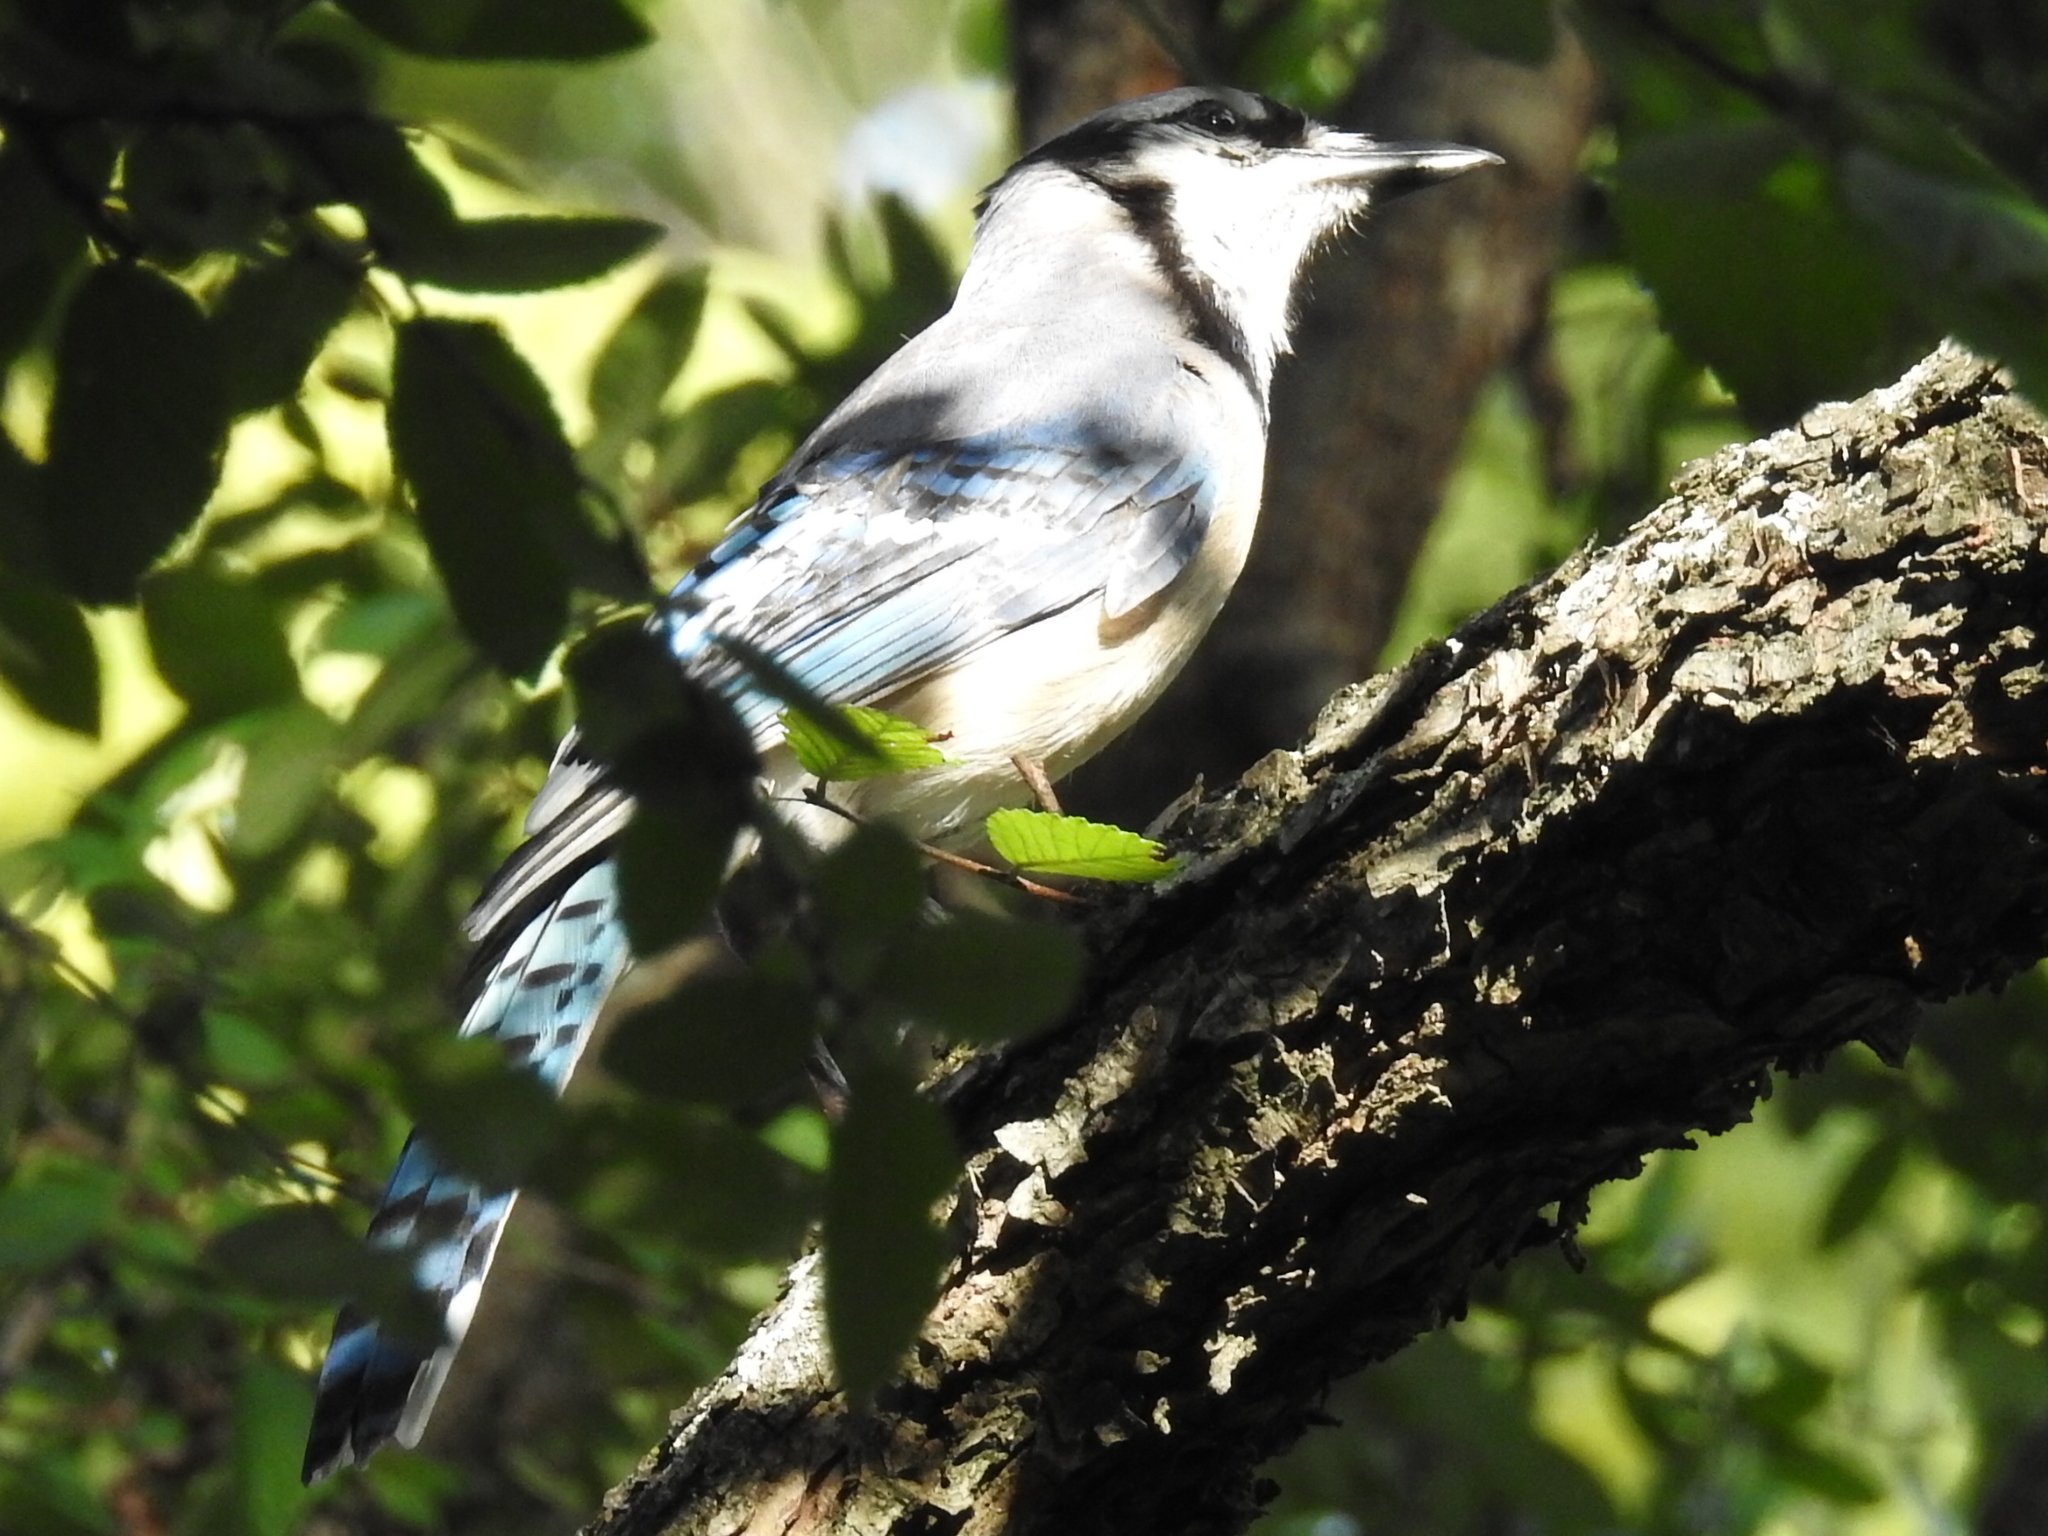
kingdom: Animalia
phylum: Chordata
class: Aves
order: Passeriformes
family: Corvidae
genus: Cyanocitta
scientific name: Cyanocitta cristata
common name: Blue jay
